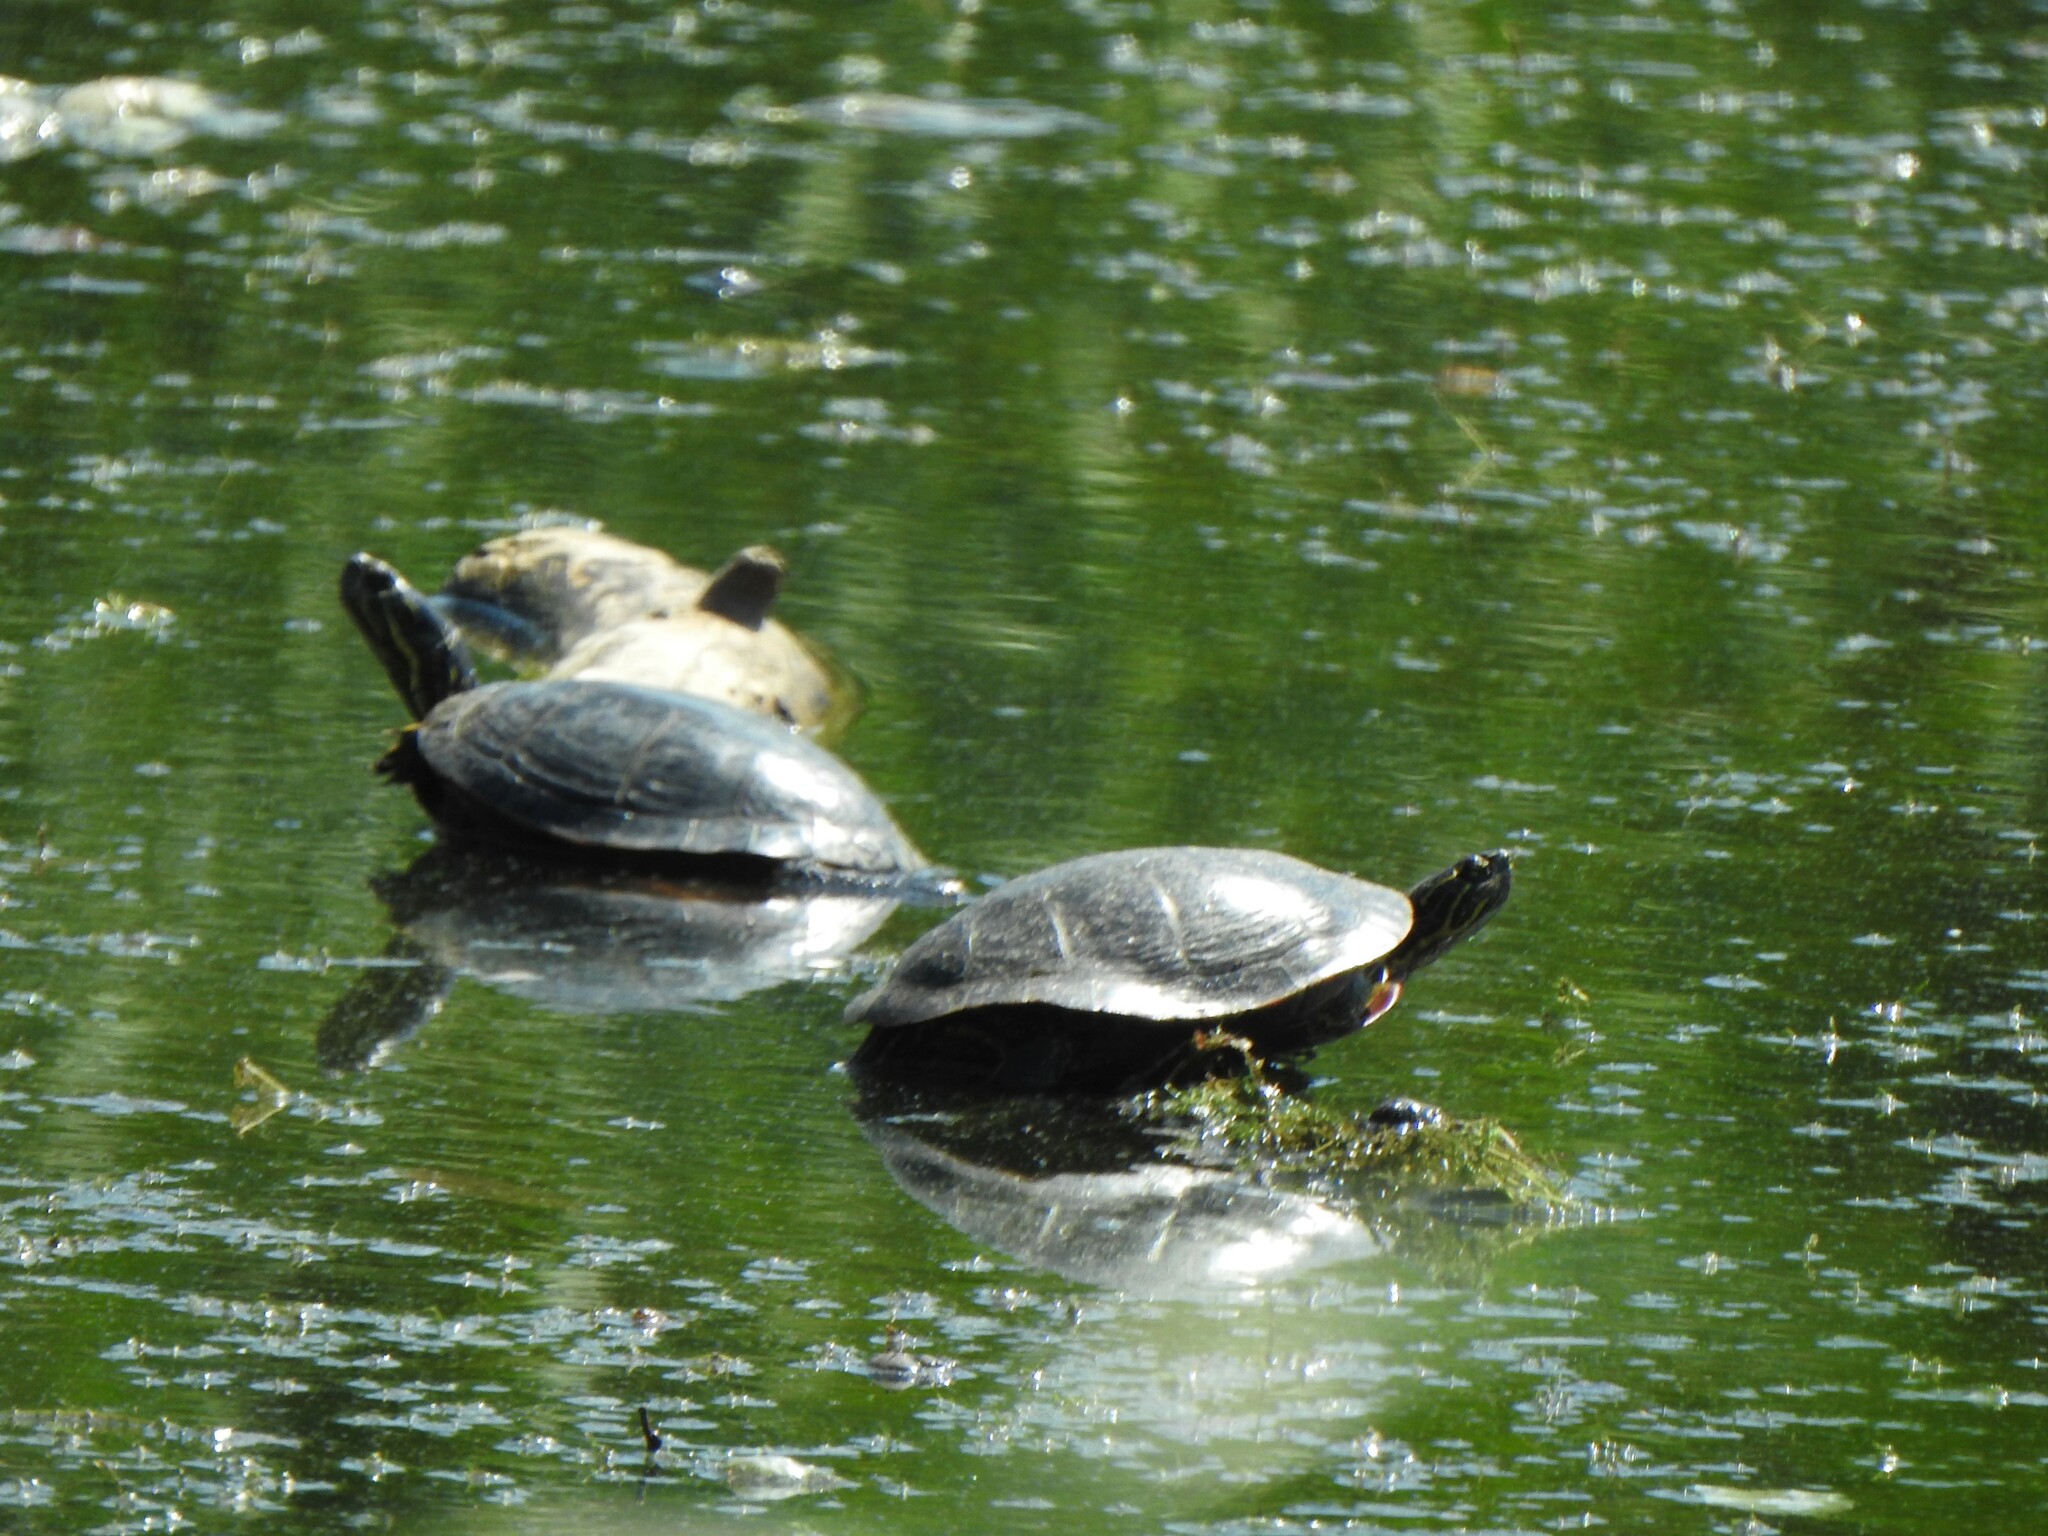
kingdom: Animalia
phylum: Chordata
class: Testudines
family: Emydidae
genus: Chrysemys
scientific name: Chrysemys picta
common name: Painted turtle
